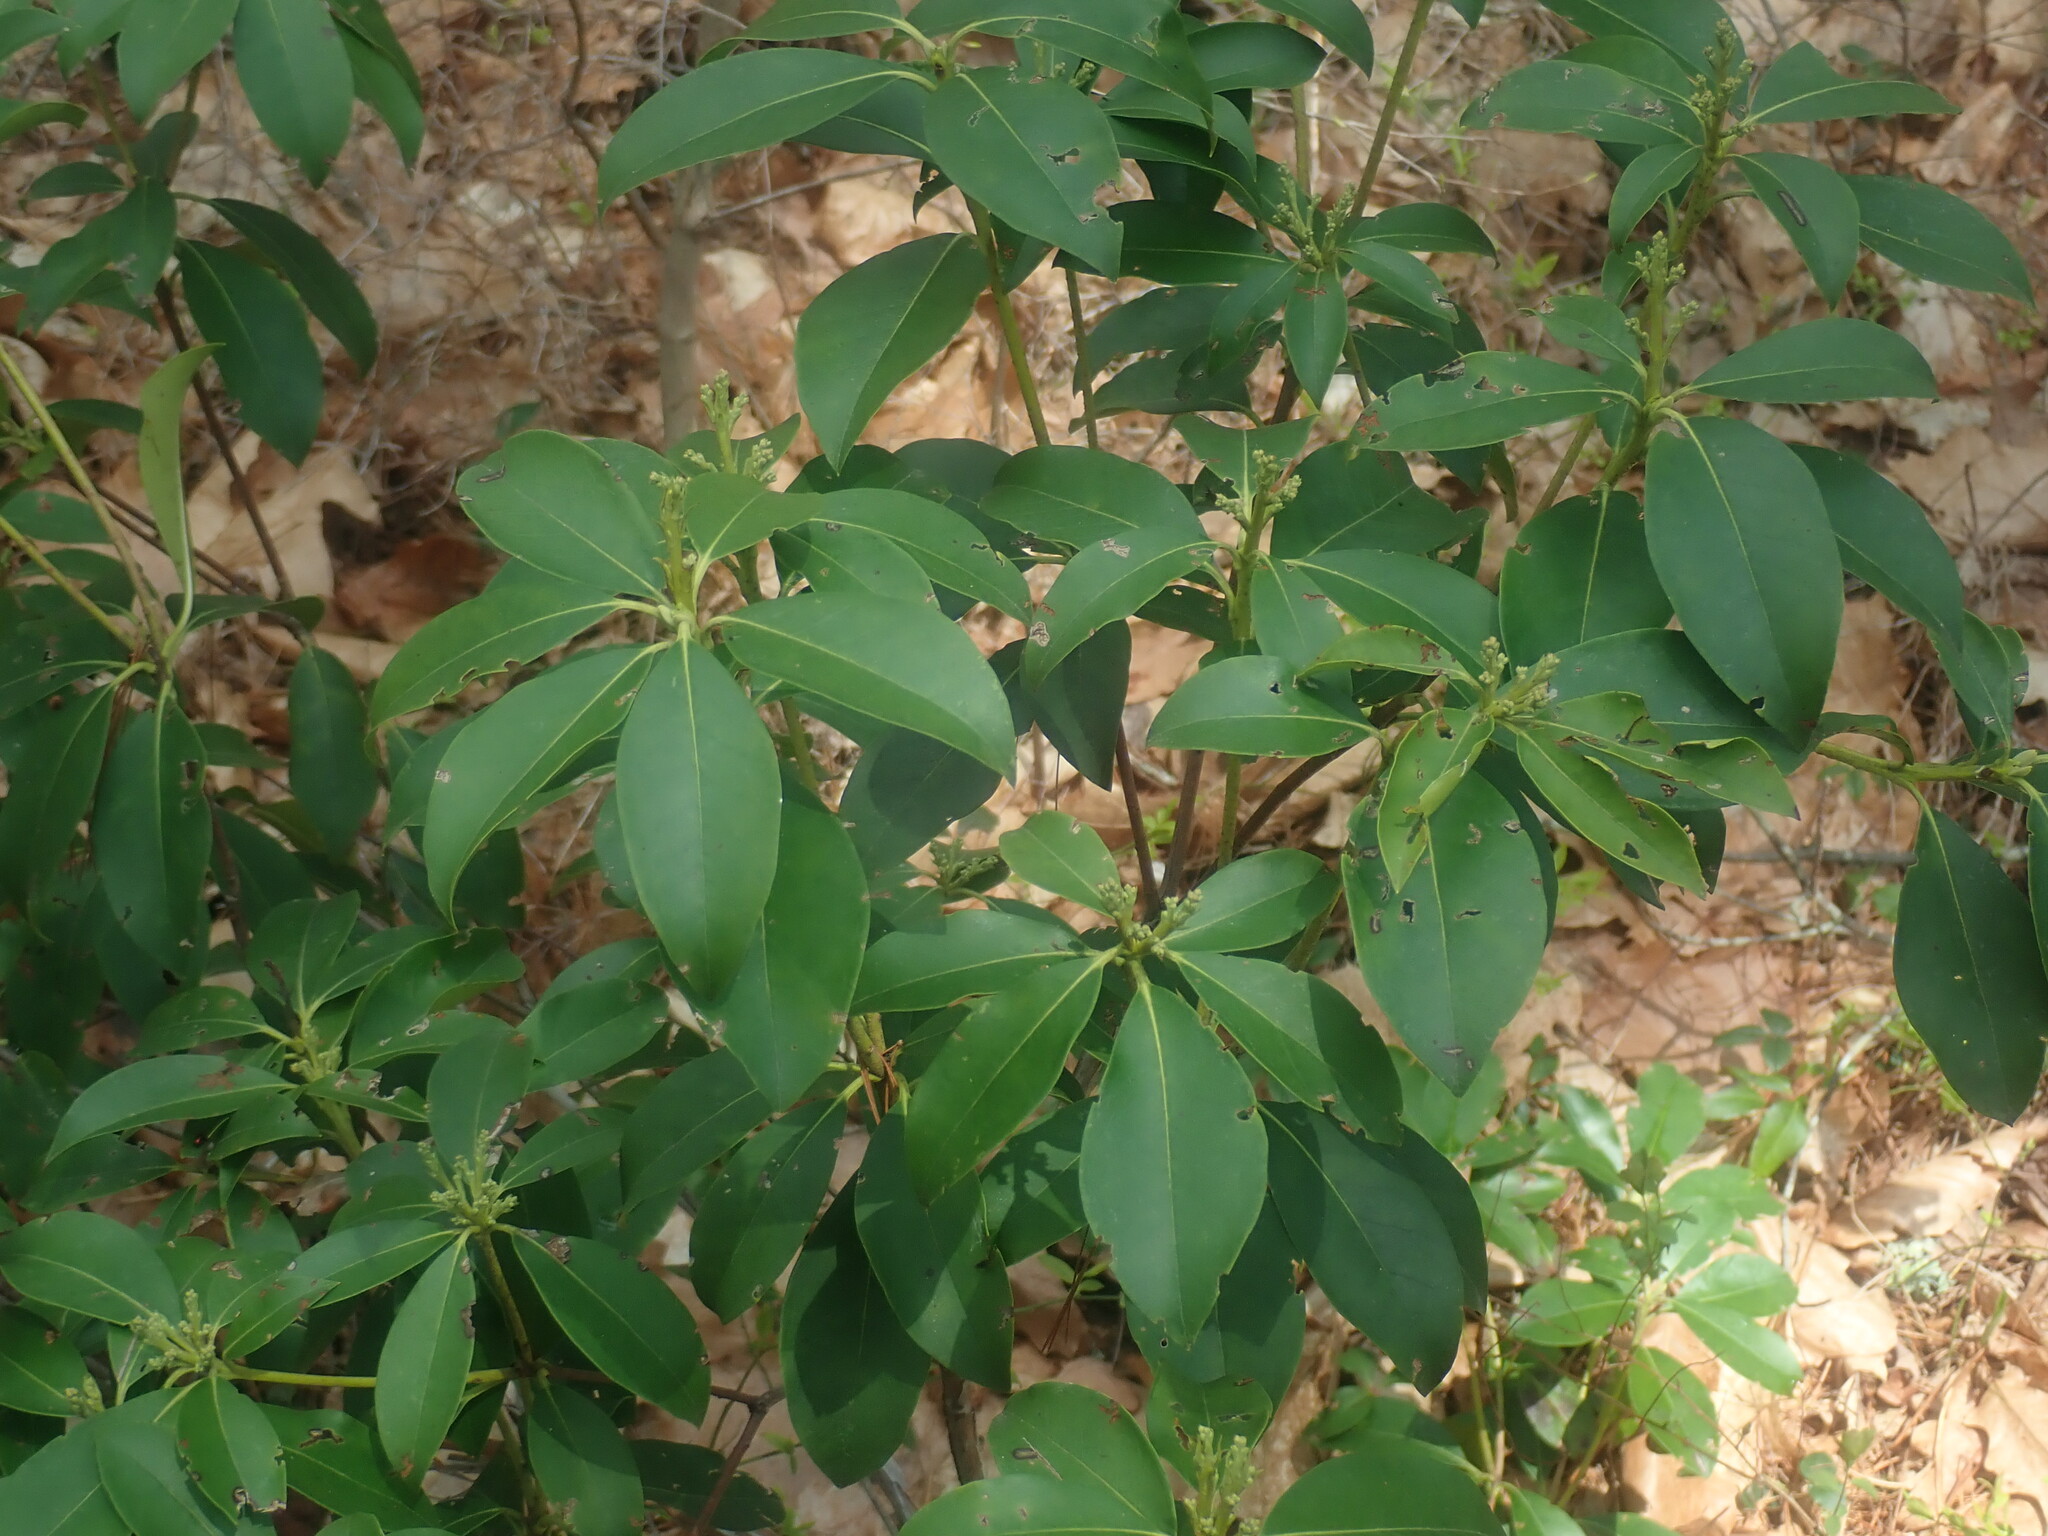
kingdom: Plantae
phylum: Tracheophyta
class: Magnoliopsida
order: Ericales
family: Ericaceae
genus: Kalmia
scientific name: Kalmia latifolia
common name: Mountain-laurel
